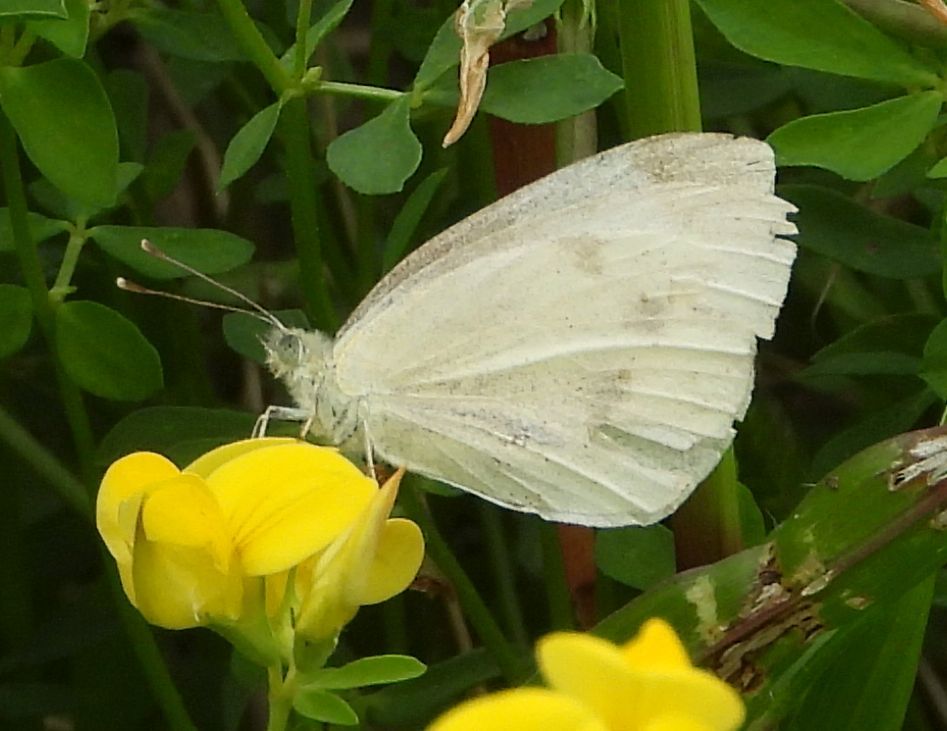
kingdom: Animalia
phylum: Arthropoda
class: Insecta
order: Lepidoptera
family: Pieridae
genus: Pieris
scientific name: Pieris rapae
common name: Small white
